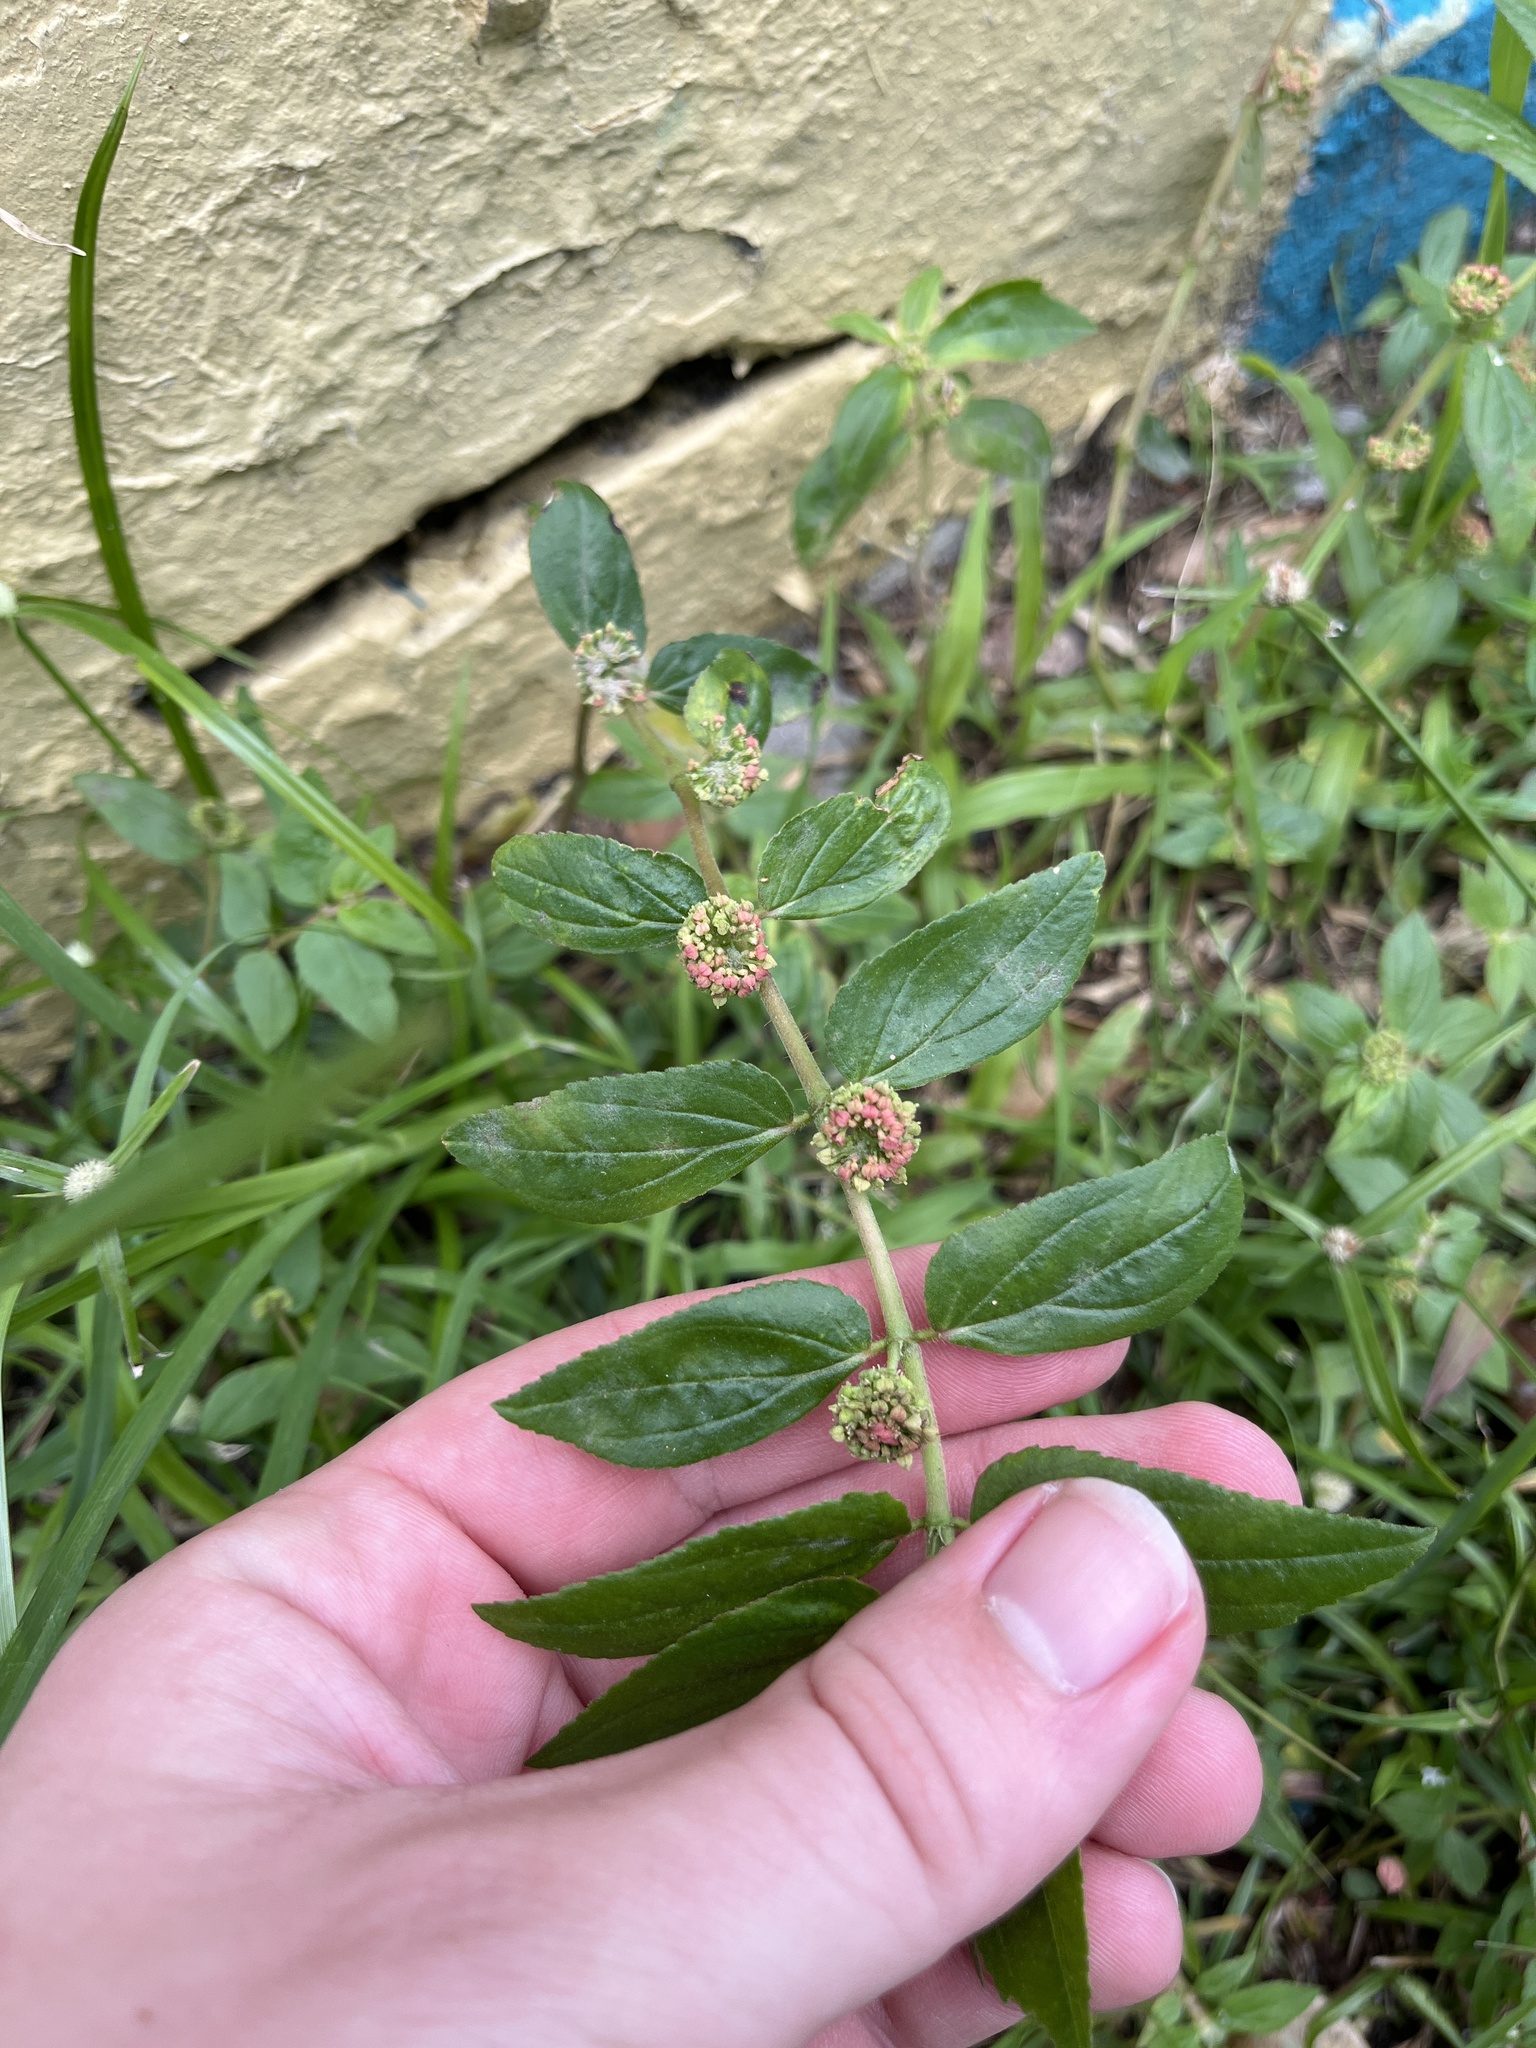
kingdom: Plantae
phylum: Tracheophyta
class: Magnoliopsida
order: Malpighiales
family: Euphorbiaceae
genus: Euphorbia
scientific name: Euphorbia hirta
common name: Pillpod sandmat
